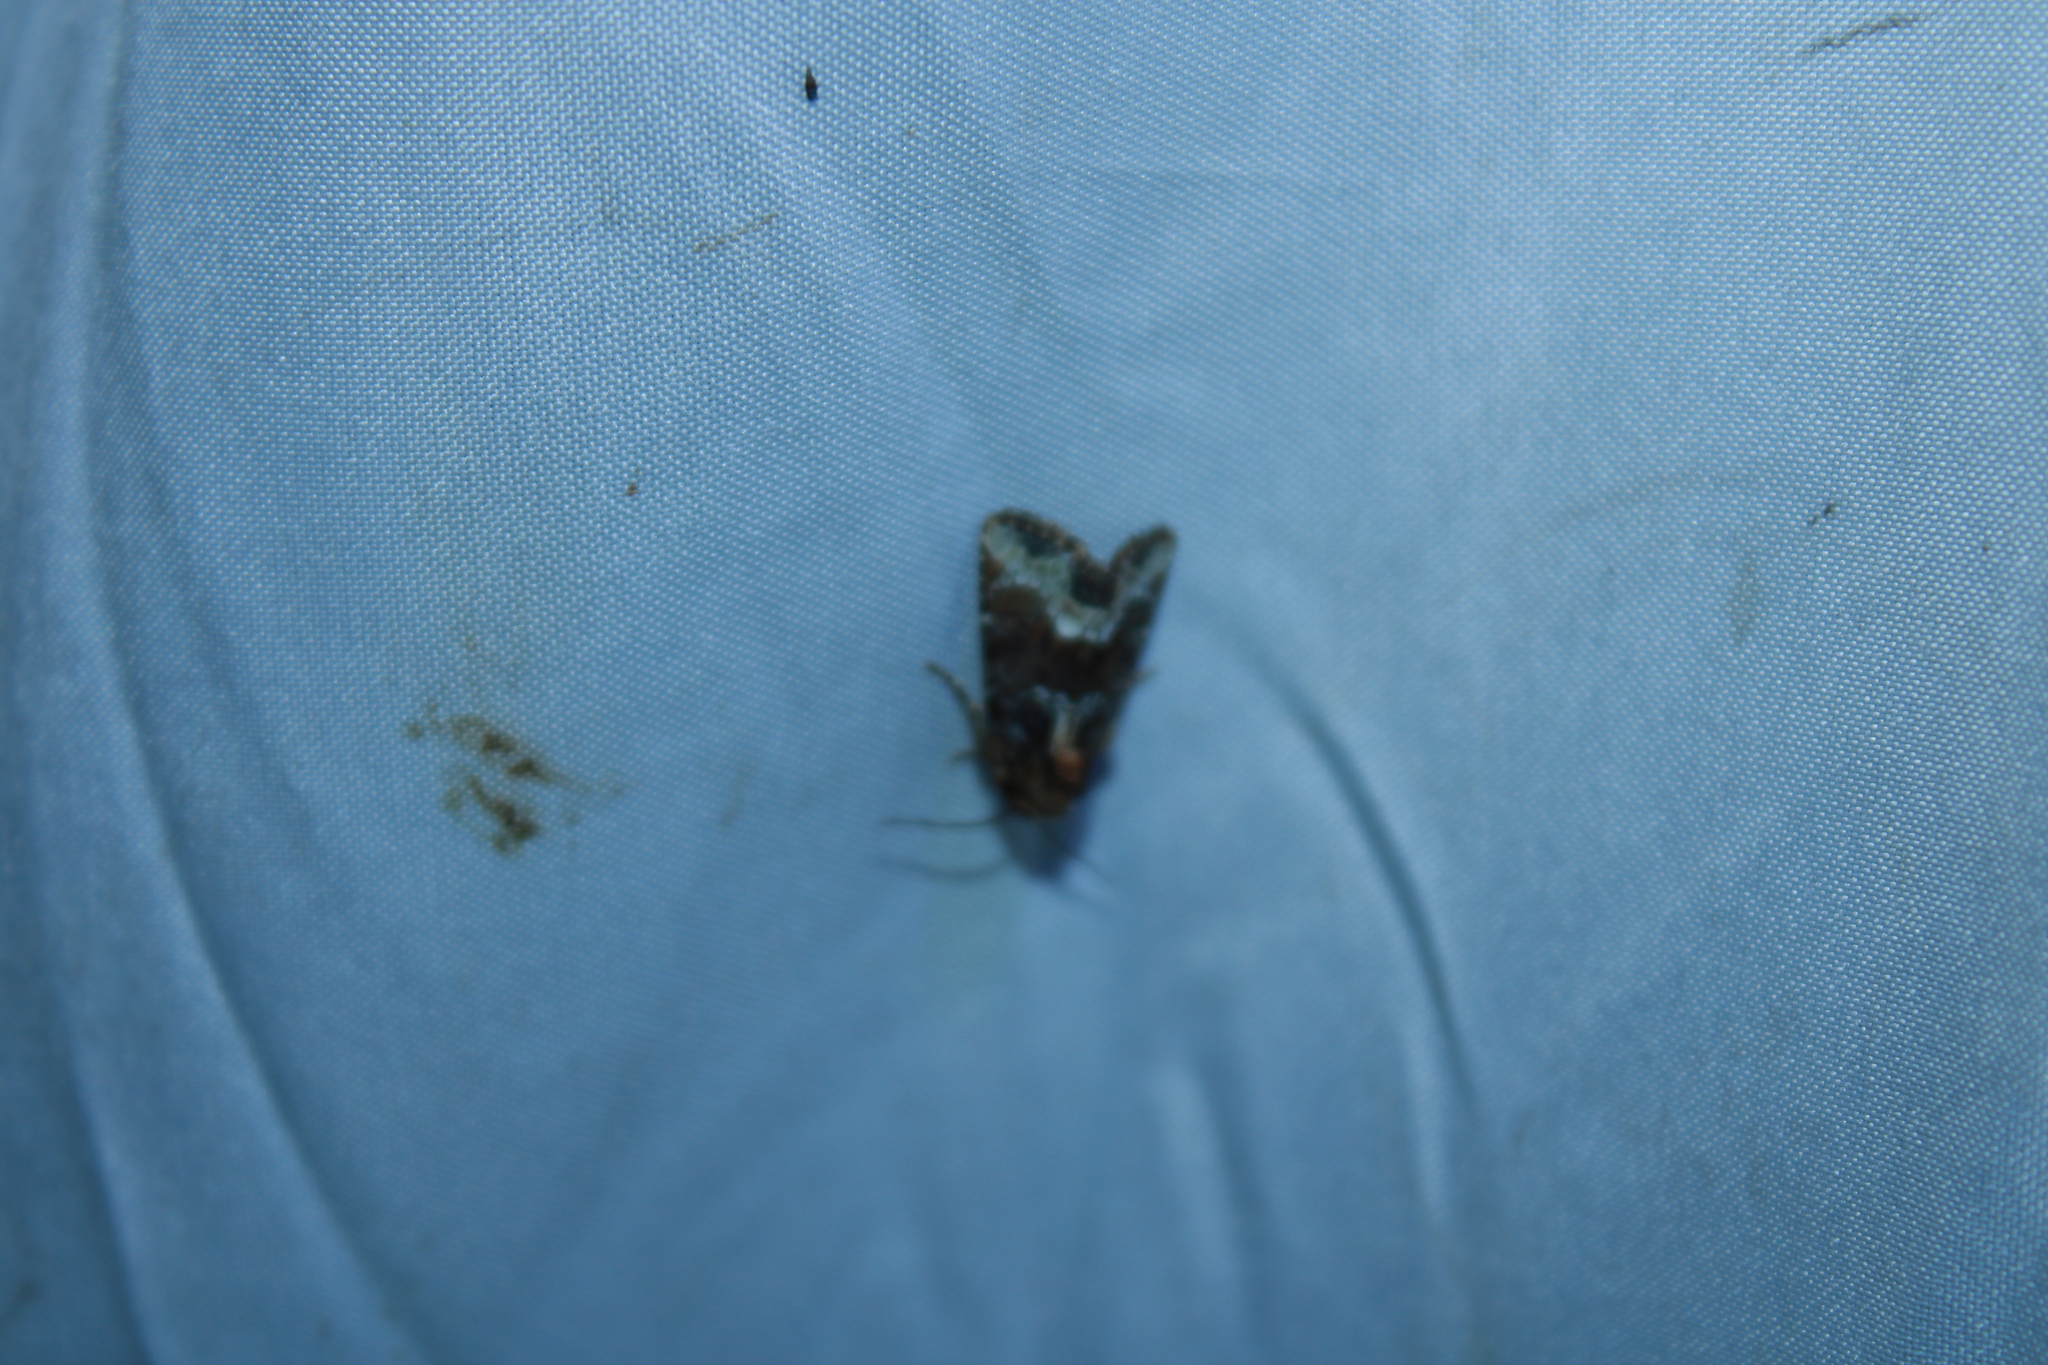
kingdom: Animalia
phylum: Arthropoda
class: Insecta
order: Lepidoptera
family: Noctuidae
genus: Oligia
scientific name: Oligia strigilis
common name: Marbled minor
